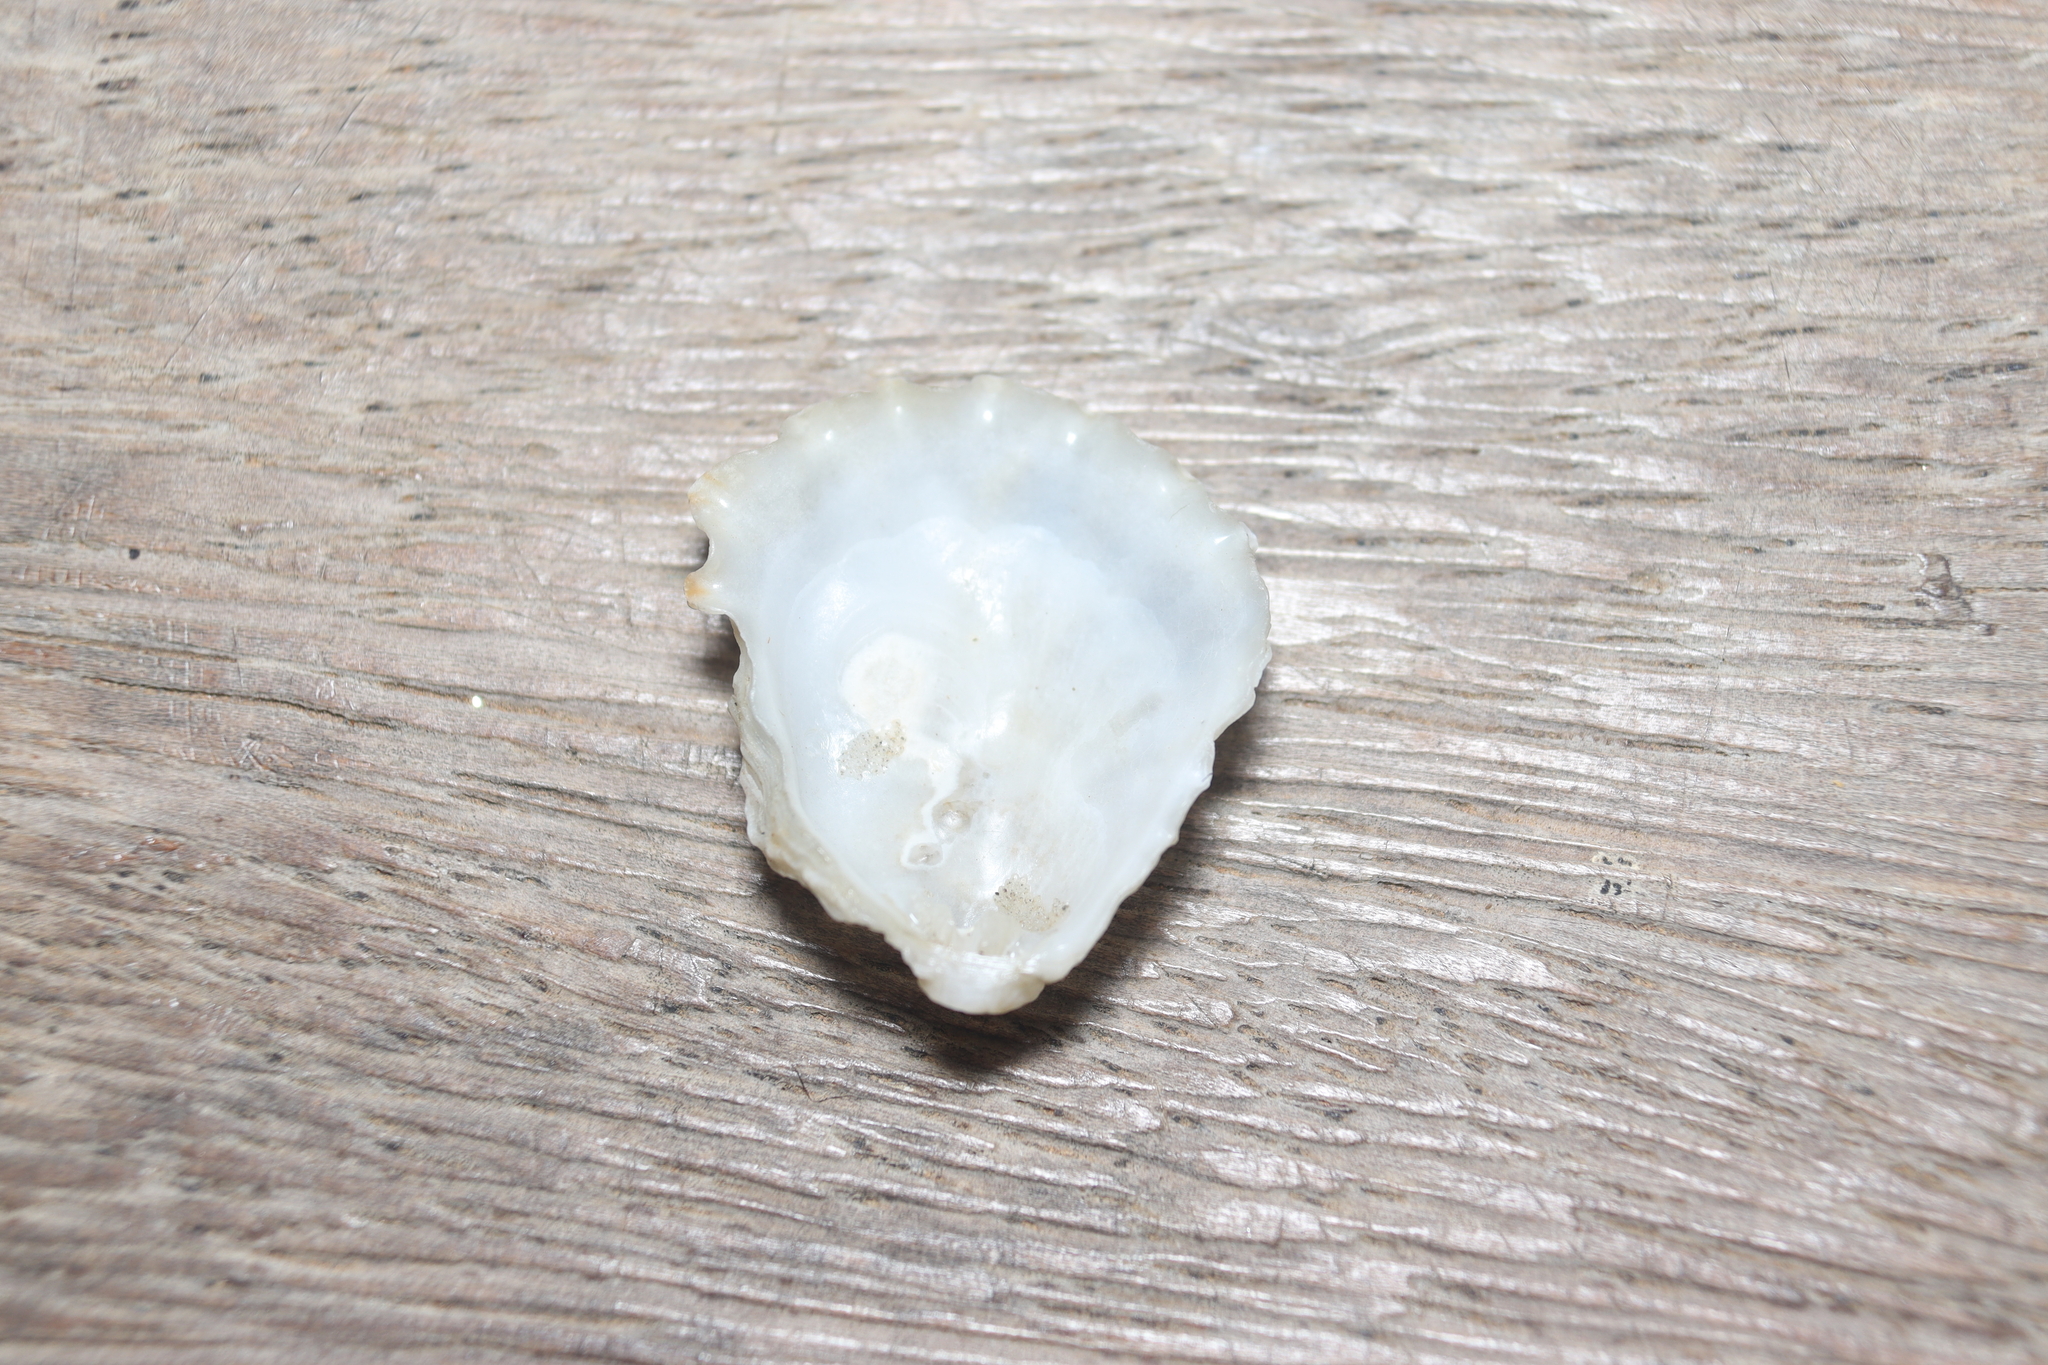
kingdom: Animalia
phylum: Mollusca
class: Bivalvia
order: Pectinida
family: Plicatulidae
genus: Plicatula
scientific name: Plicatula gibbosa
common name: Atlantic kitten's paw
